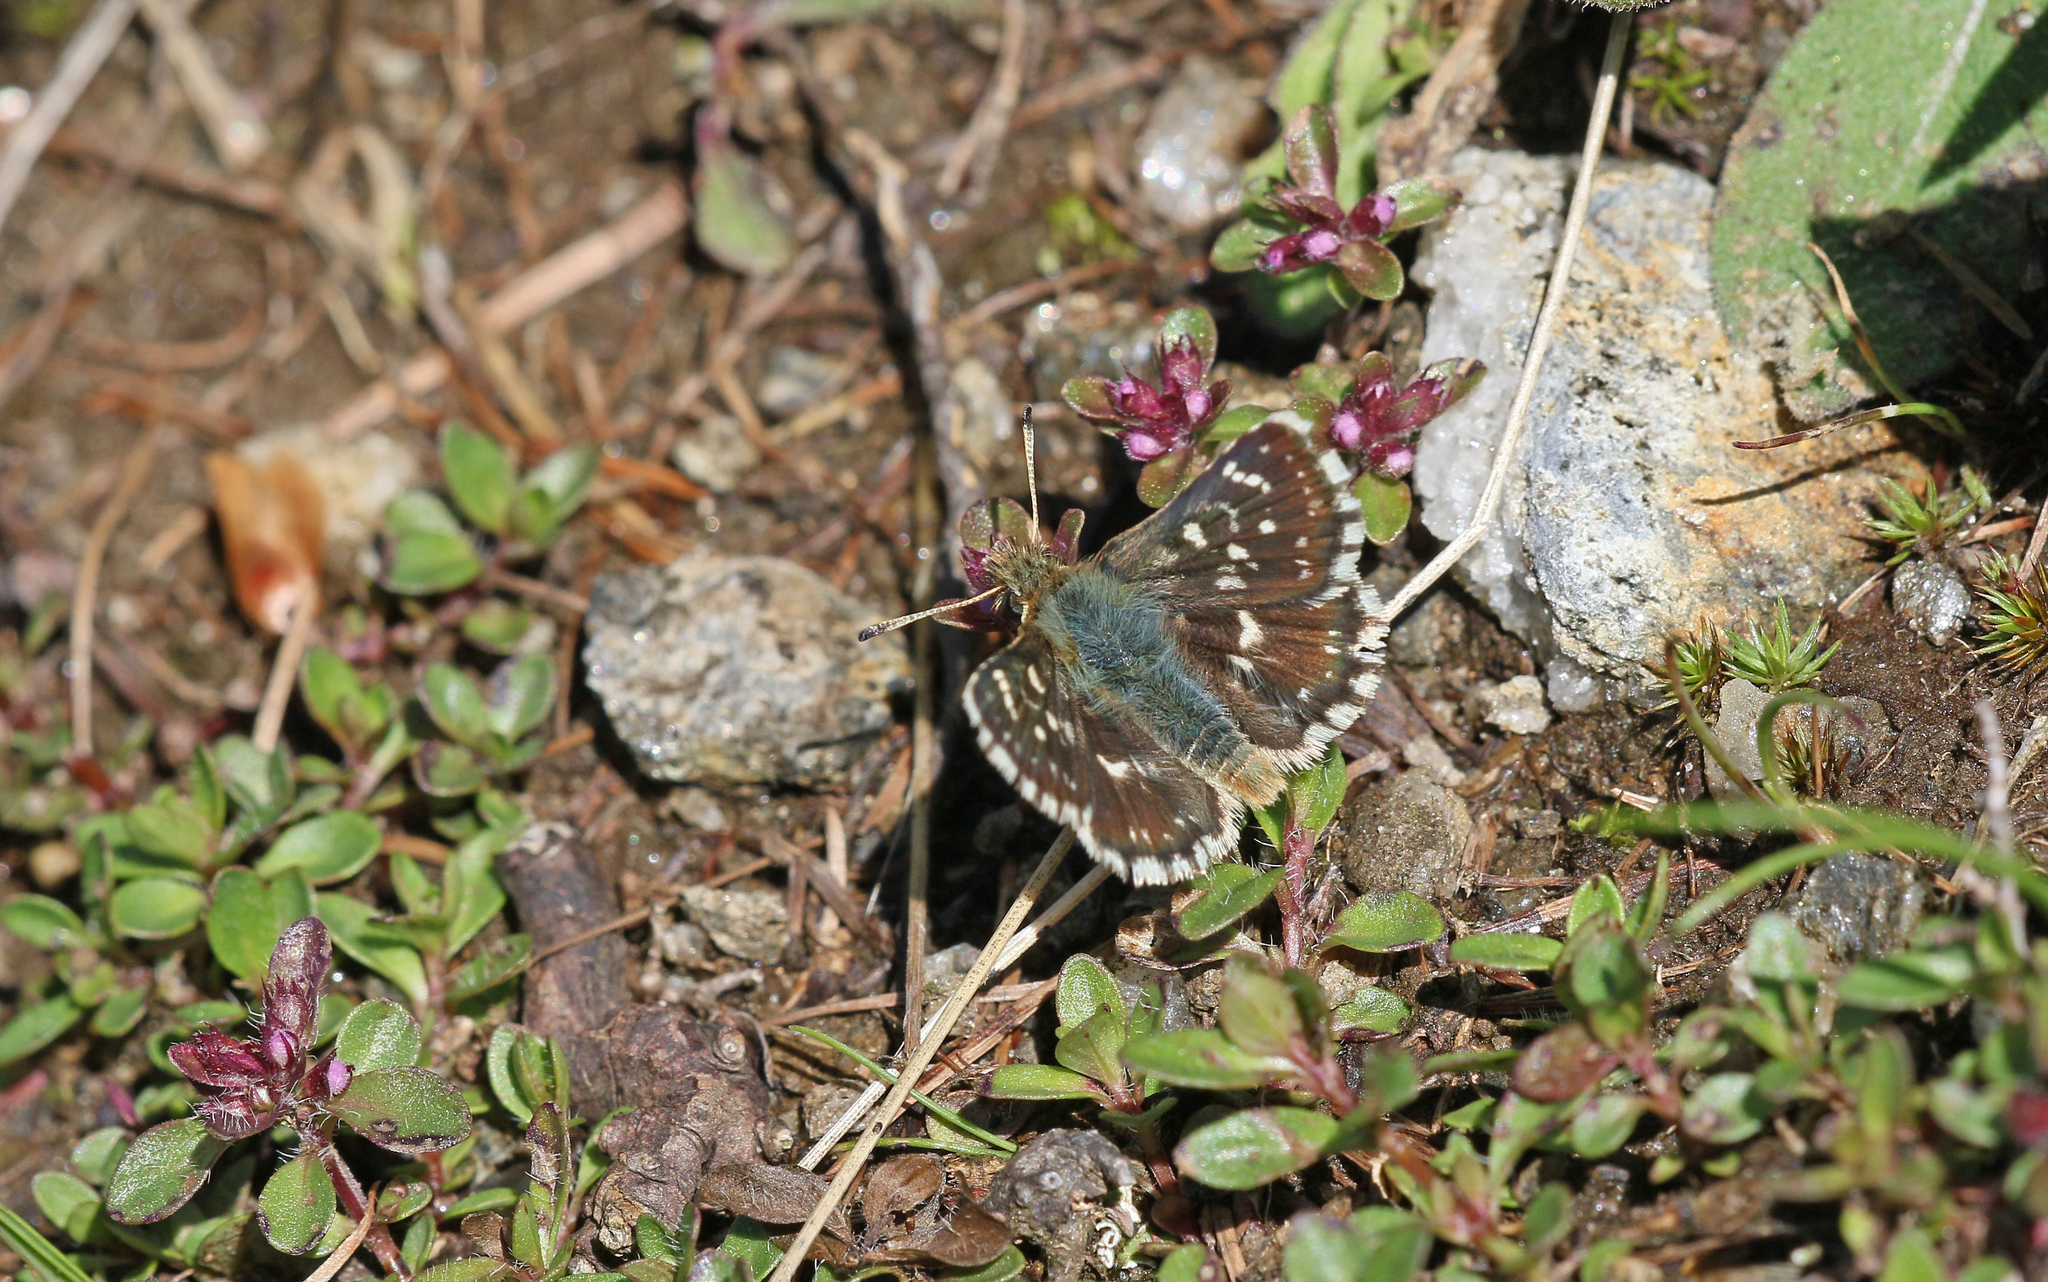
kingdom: Animalia
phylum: Arthropoda
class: Insecta
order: Lepidoptera
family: Hesperiidae
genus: Spialia
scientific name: Spialia sertorius
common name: Red underwing skipper
